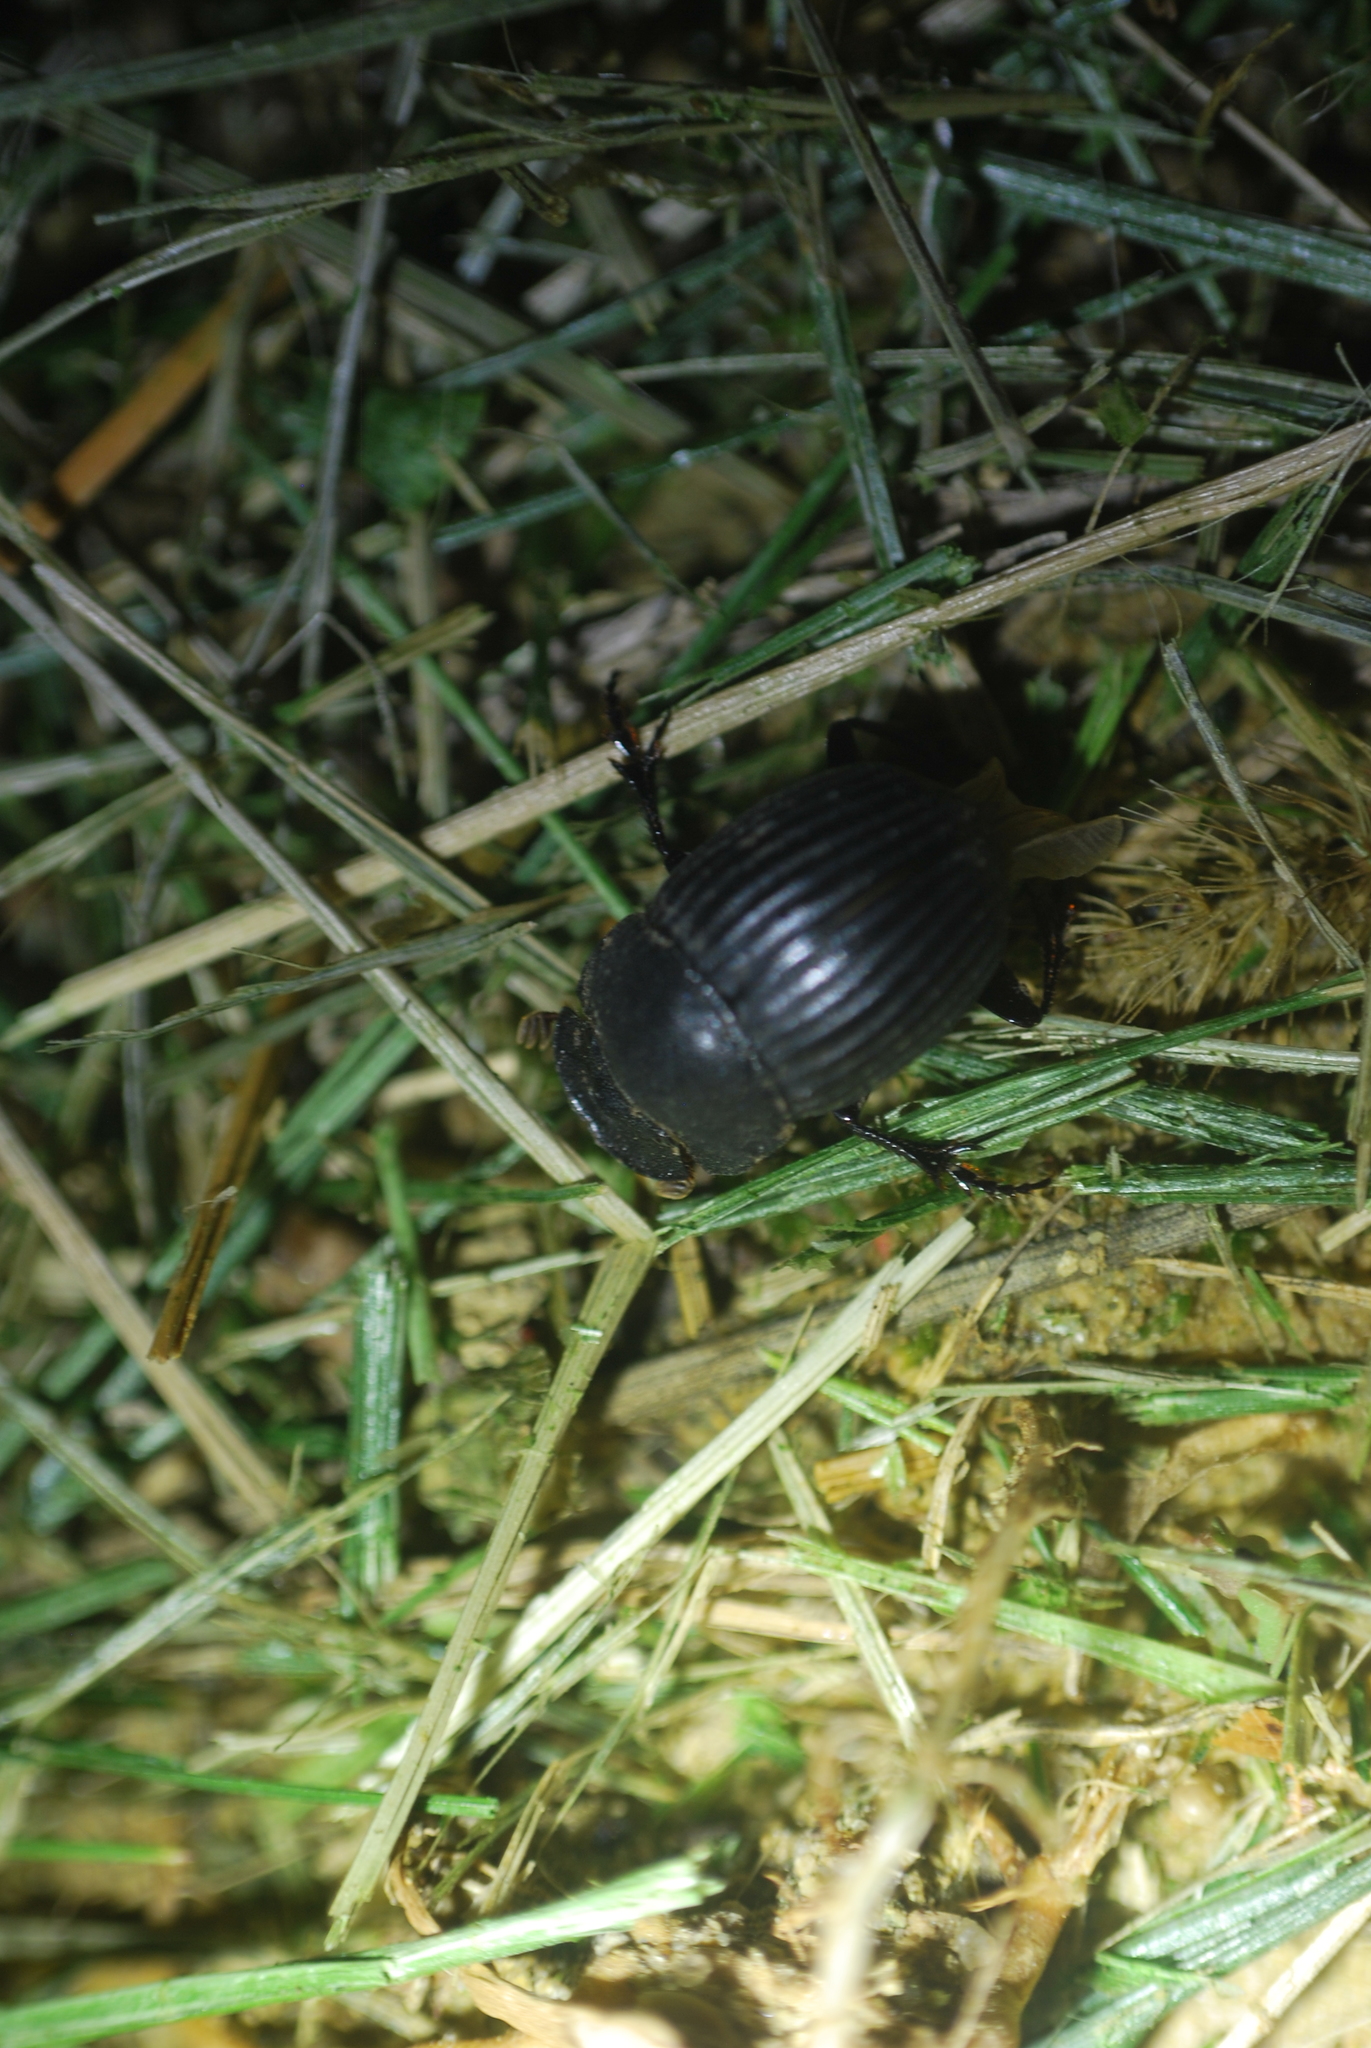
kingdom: Animalia
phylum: Arthropoda
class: Insecta
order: Coleoptera
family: Scarabaeidae
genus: Copris
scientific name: Copris fricator
